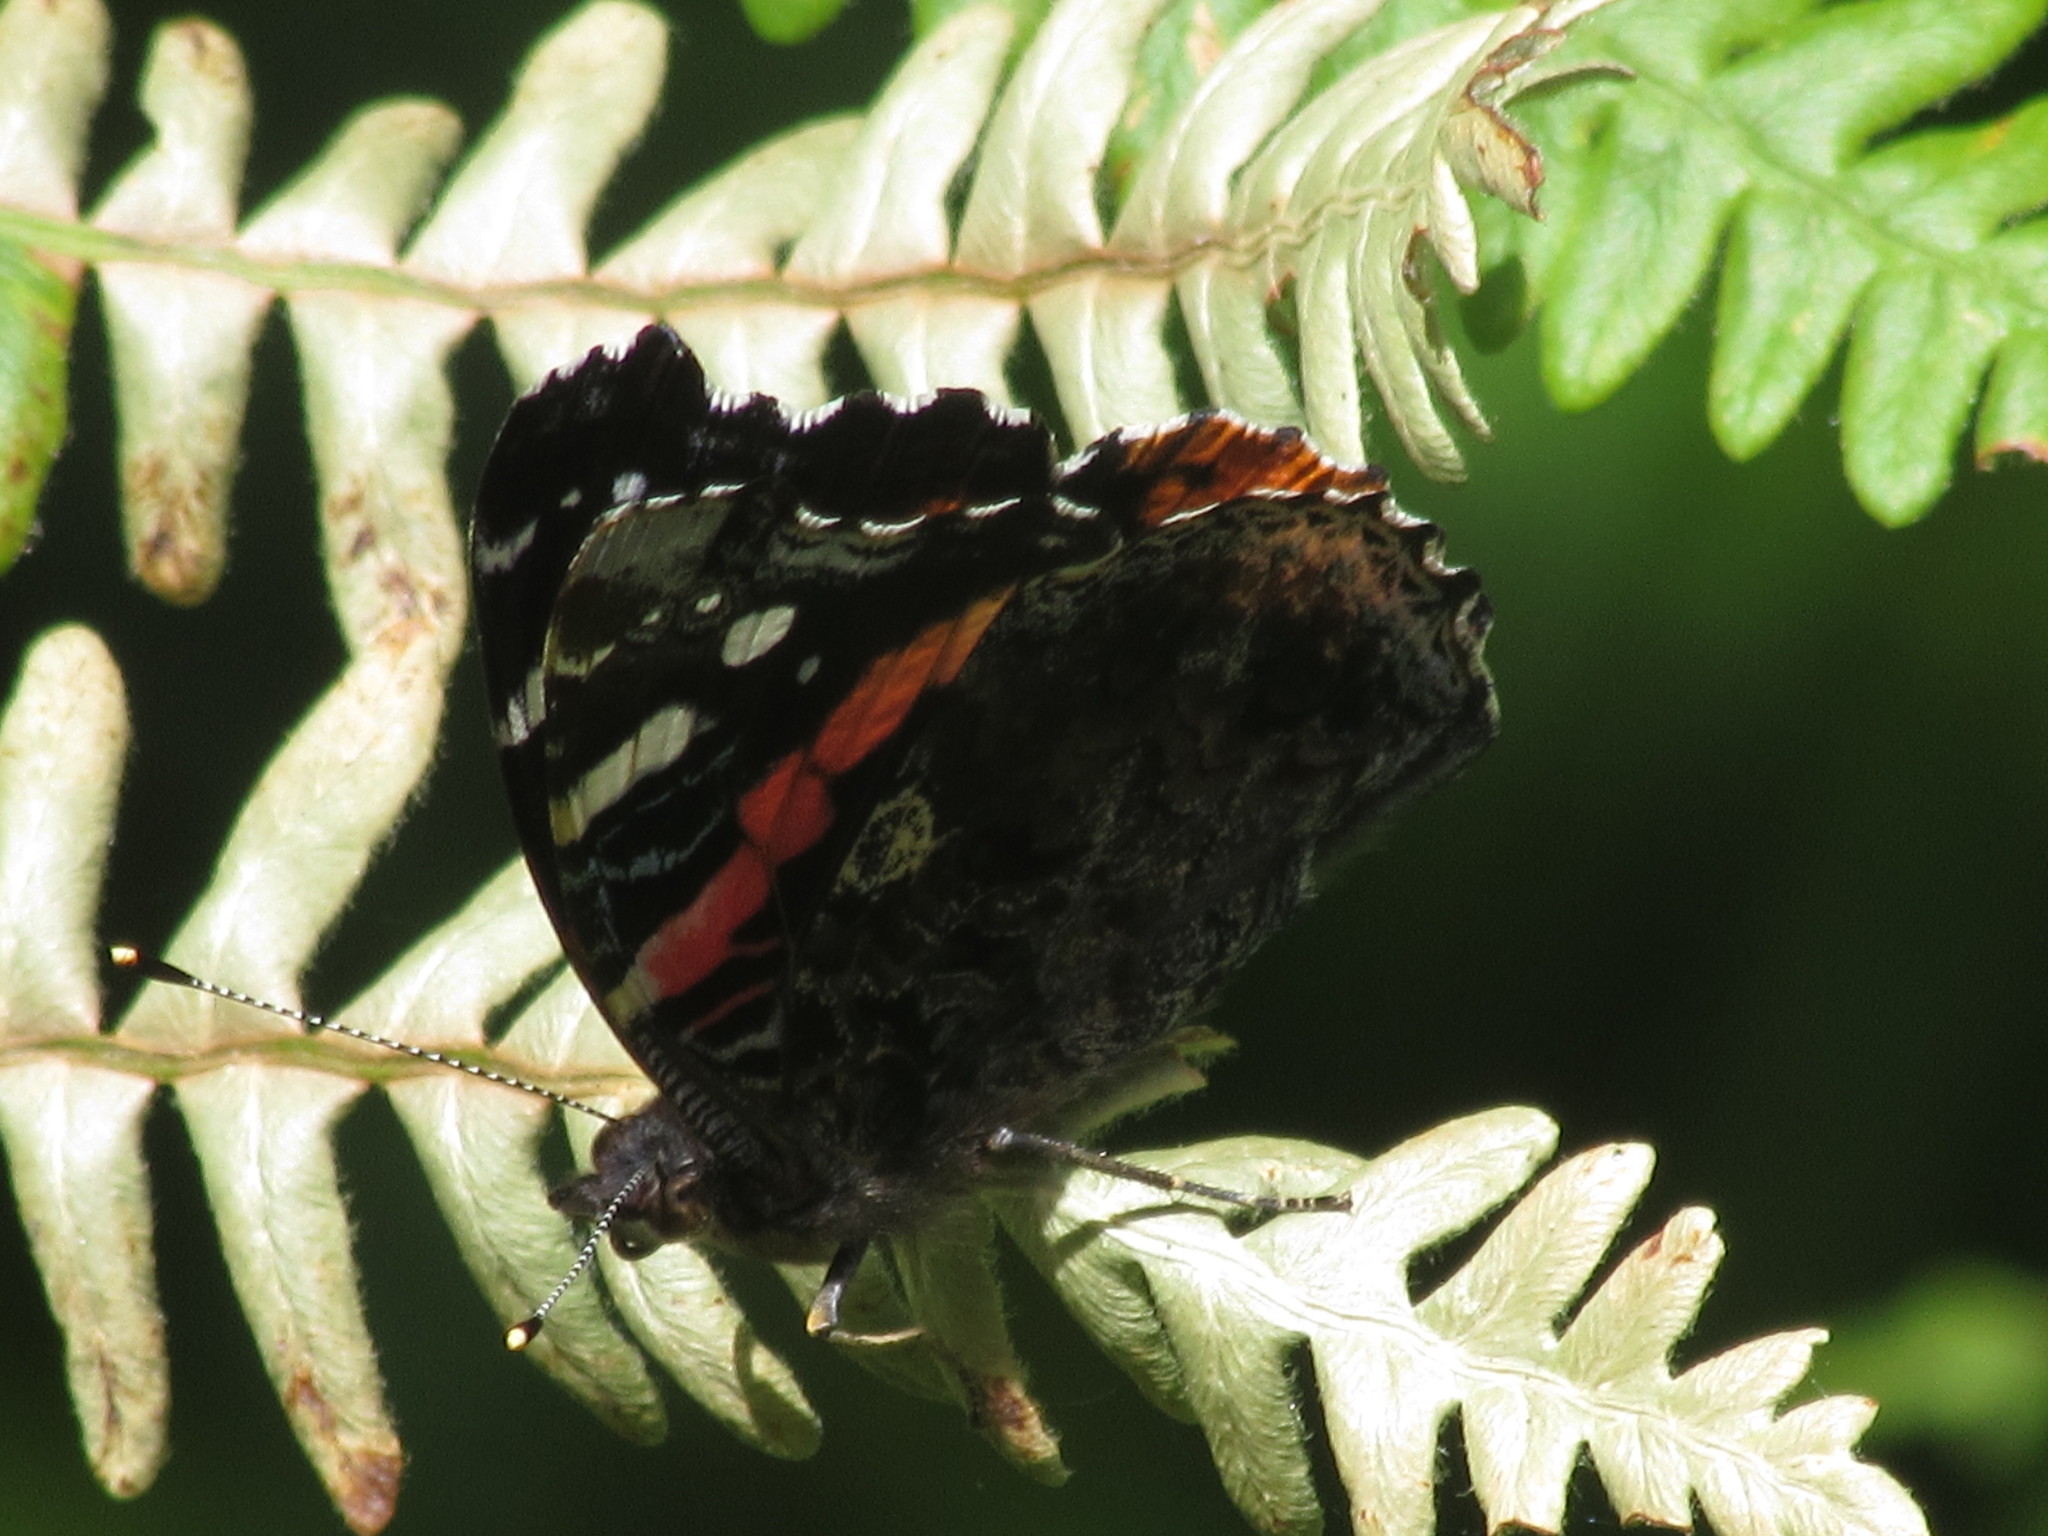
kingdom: Animalia
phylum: Arthropoda
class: Insecta
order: Lepidoptera
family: Nymphalidae
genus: Vanessa
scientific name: Vanessa atalanta
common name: Red admiral
